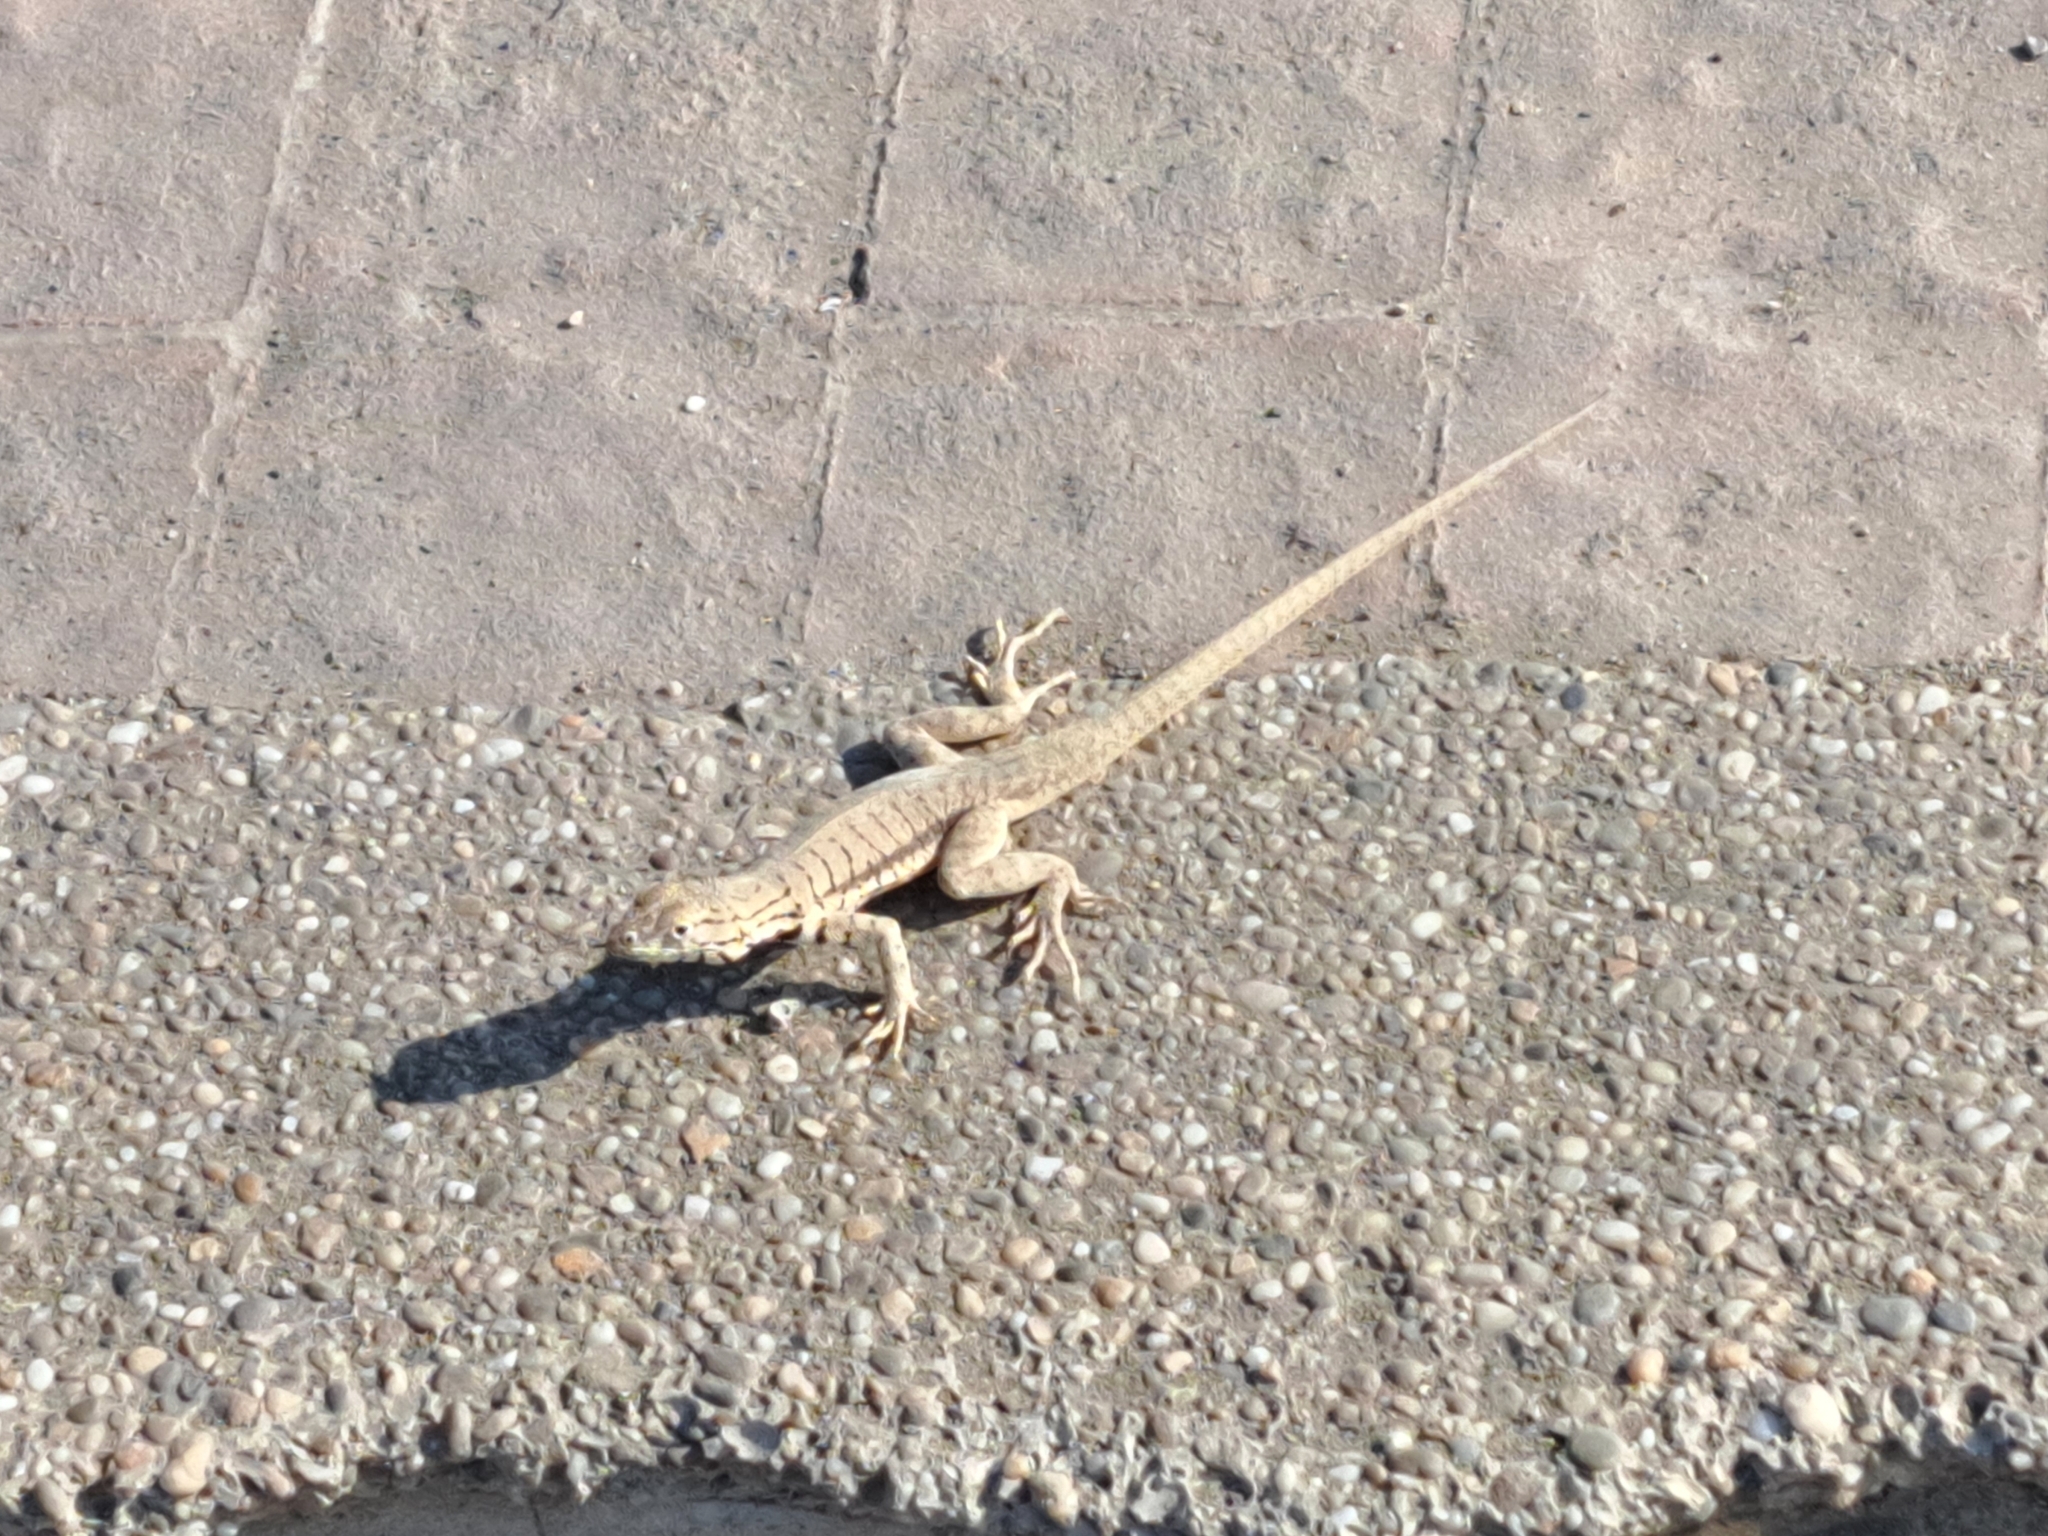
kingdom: Animalia
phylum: Chordata
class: Squamata
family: Tropiduridae
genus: Microlophus
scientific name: Microlophus peruvianus
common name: Peru pacific iguana
